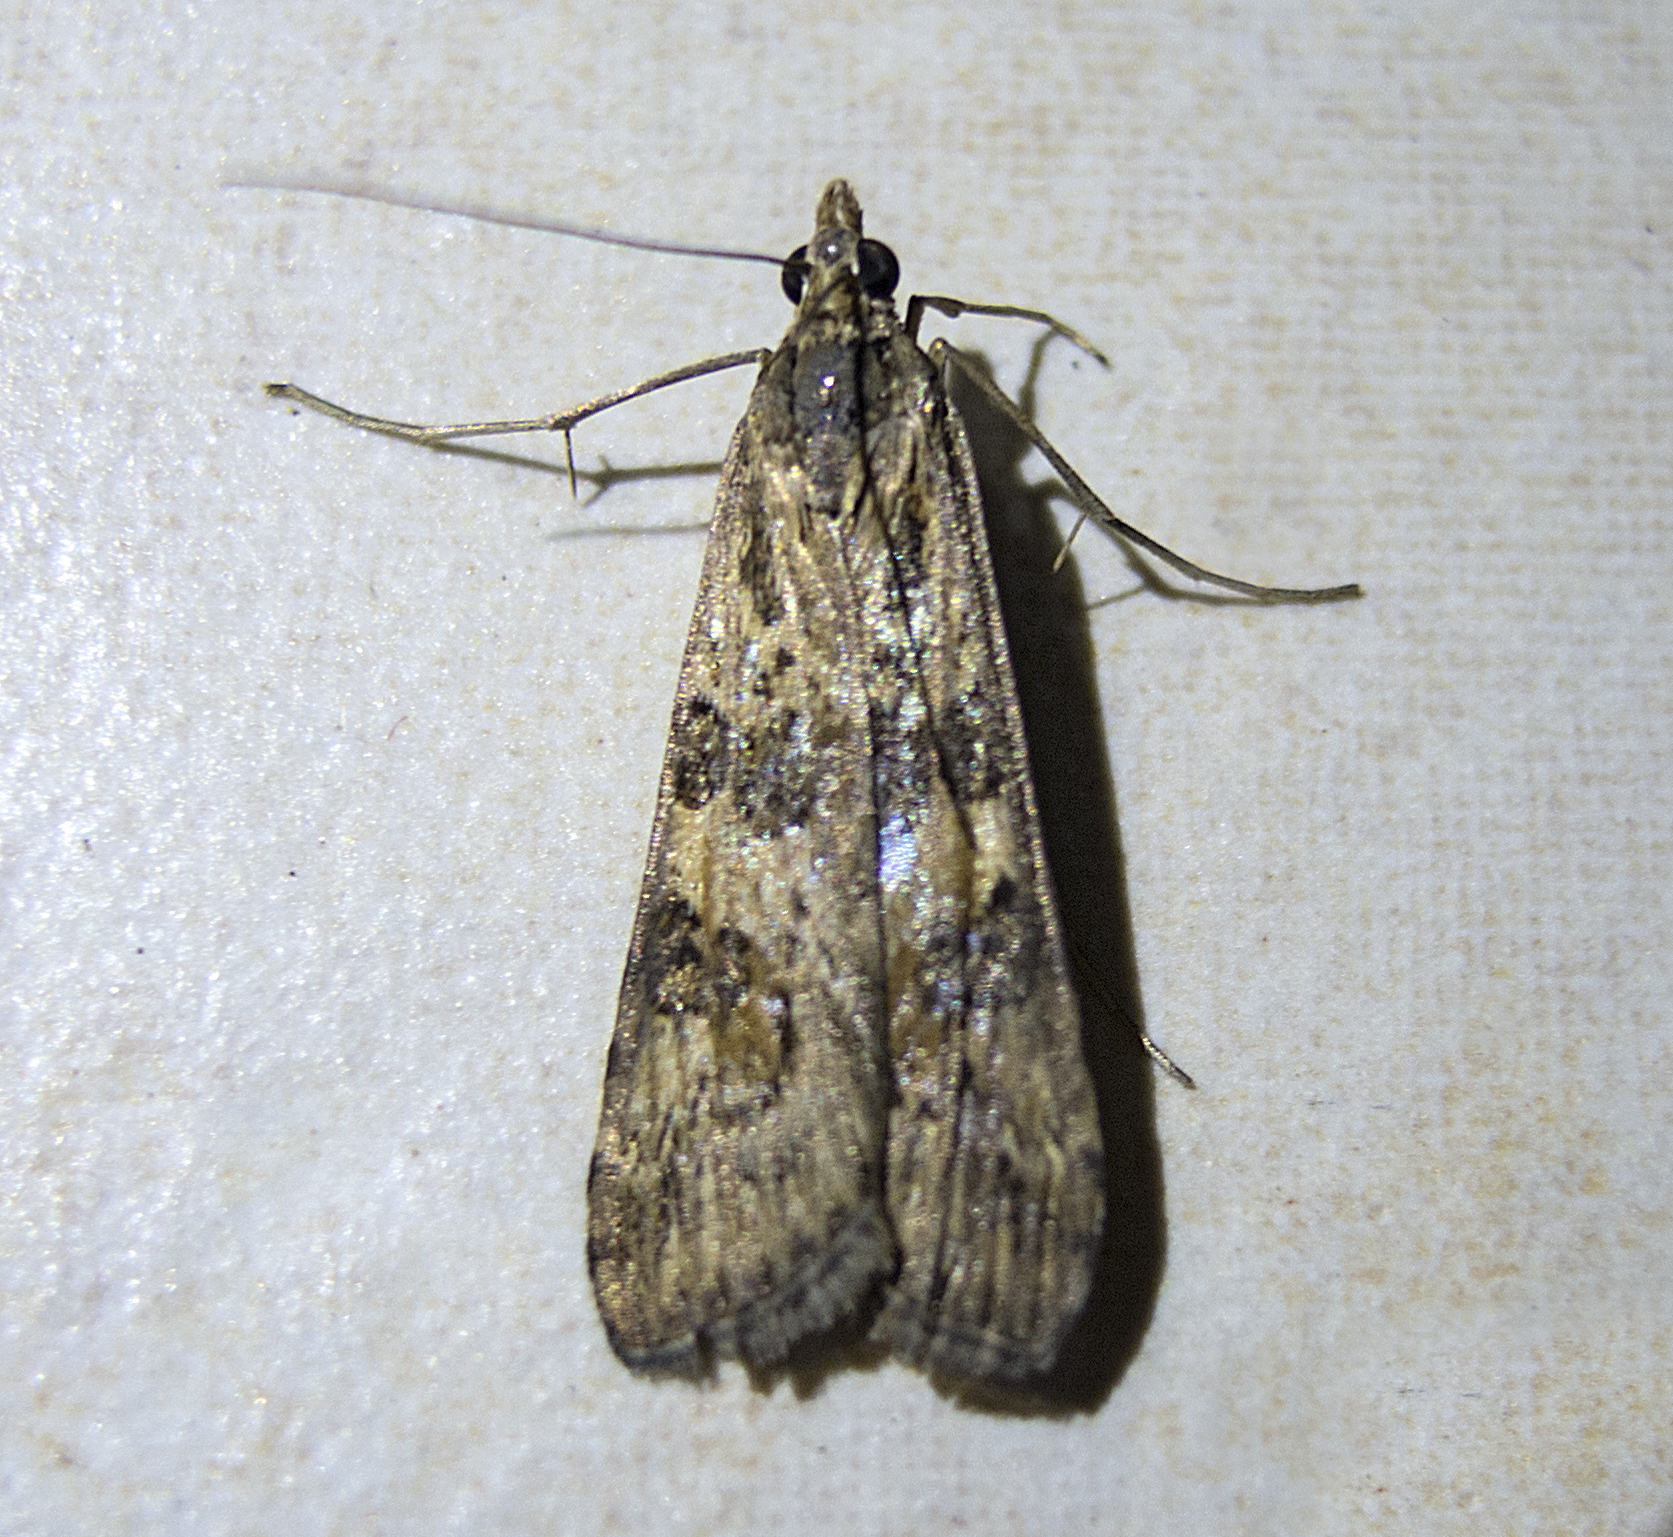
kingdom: Animalia
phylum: Arthropoda
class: Insecta
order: Lepidoptera
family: Crambidae
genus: Nomophila
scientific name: Nomophila noctuella
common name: Rush veneer
